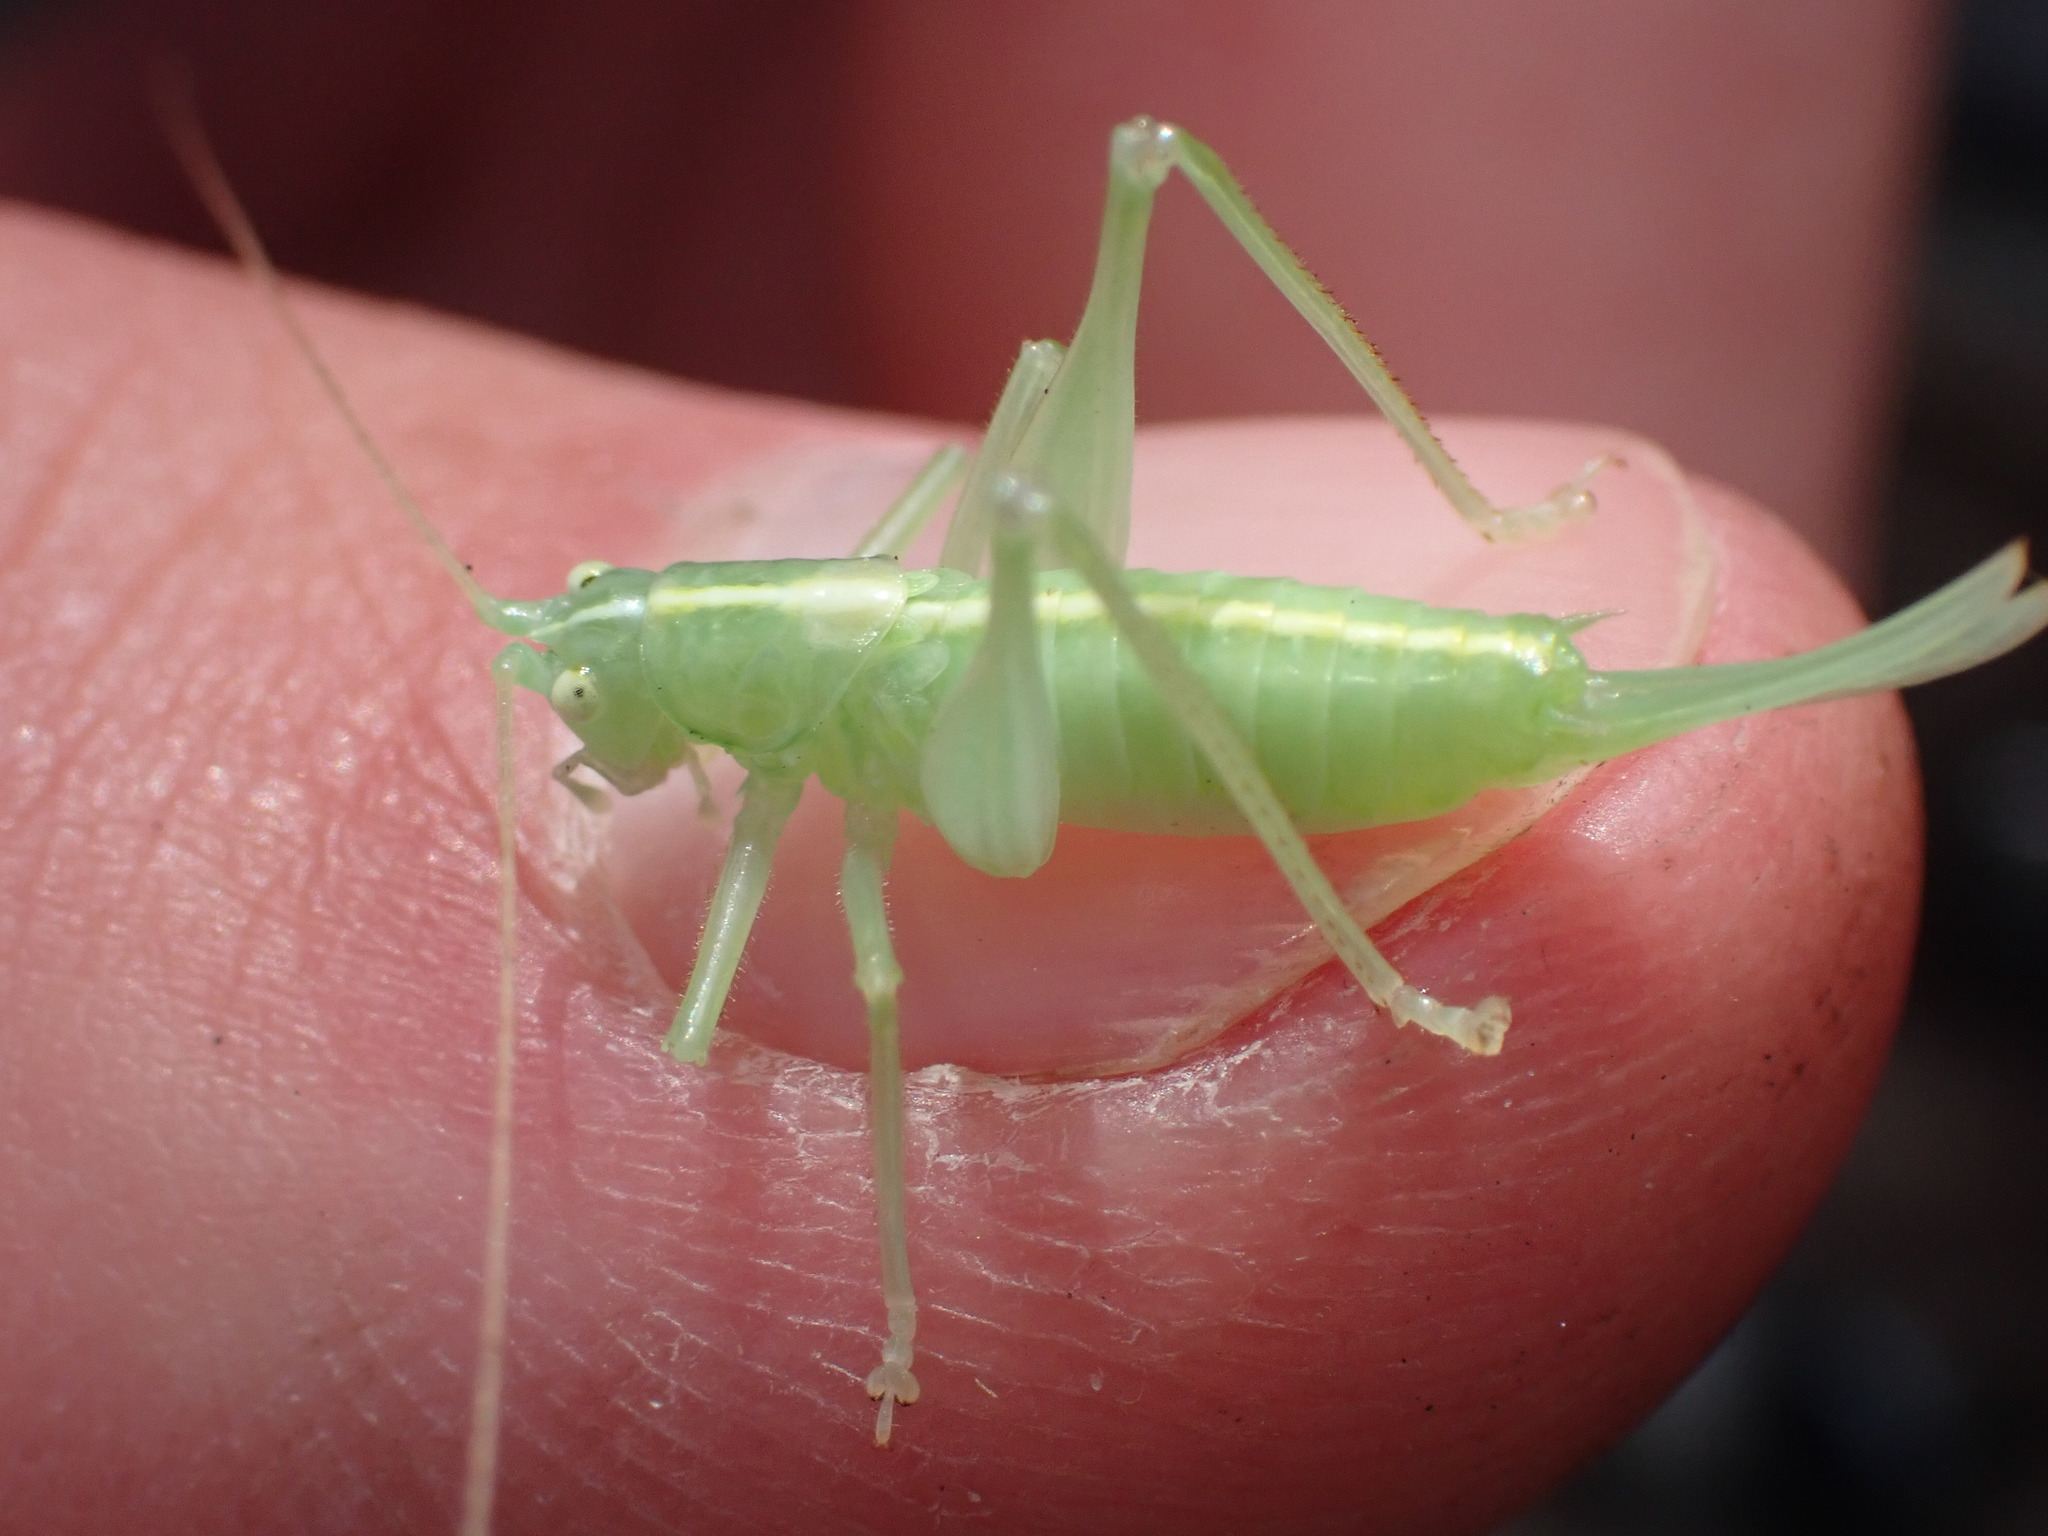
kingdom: Animalia
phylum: Arthropoda
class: Insecta
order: Orthoptera
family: Tettigoniidae
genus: Meconema
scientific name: Meconema meridionale
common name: Southern oak bush-cricket
